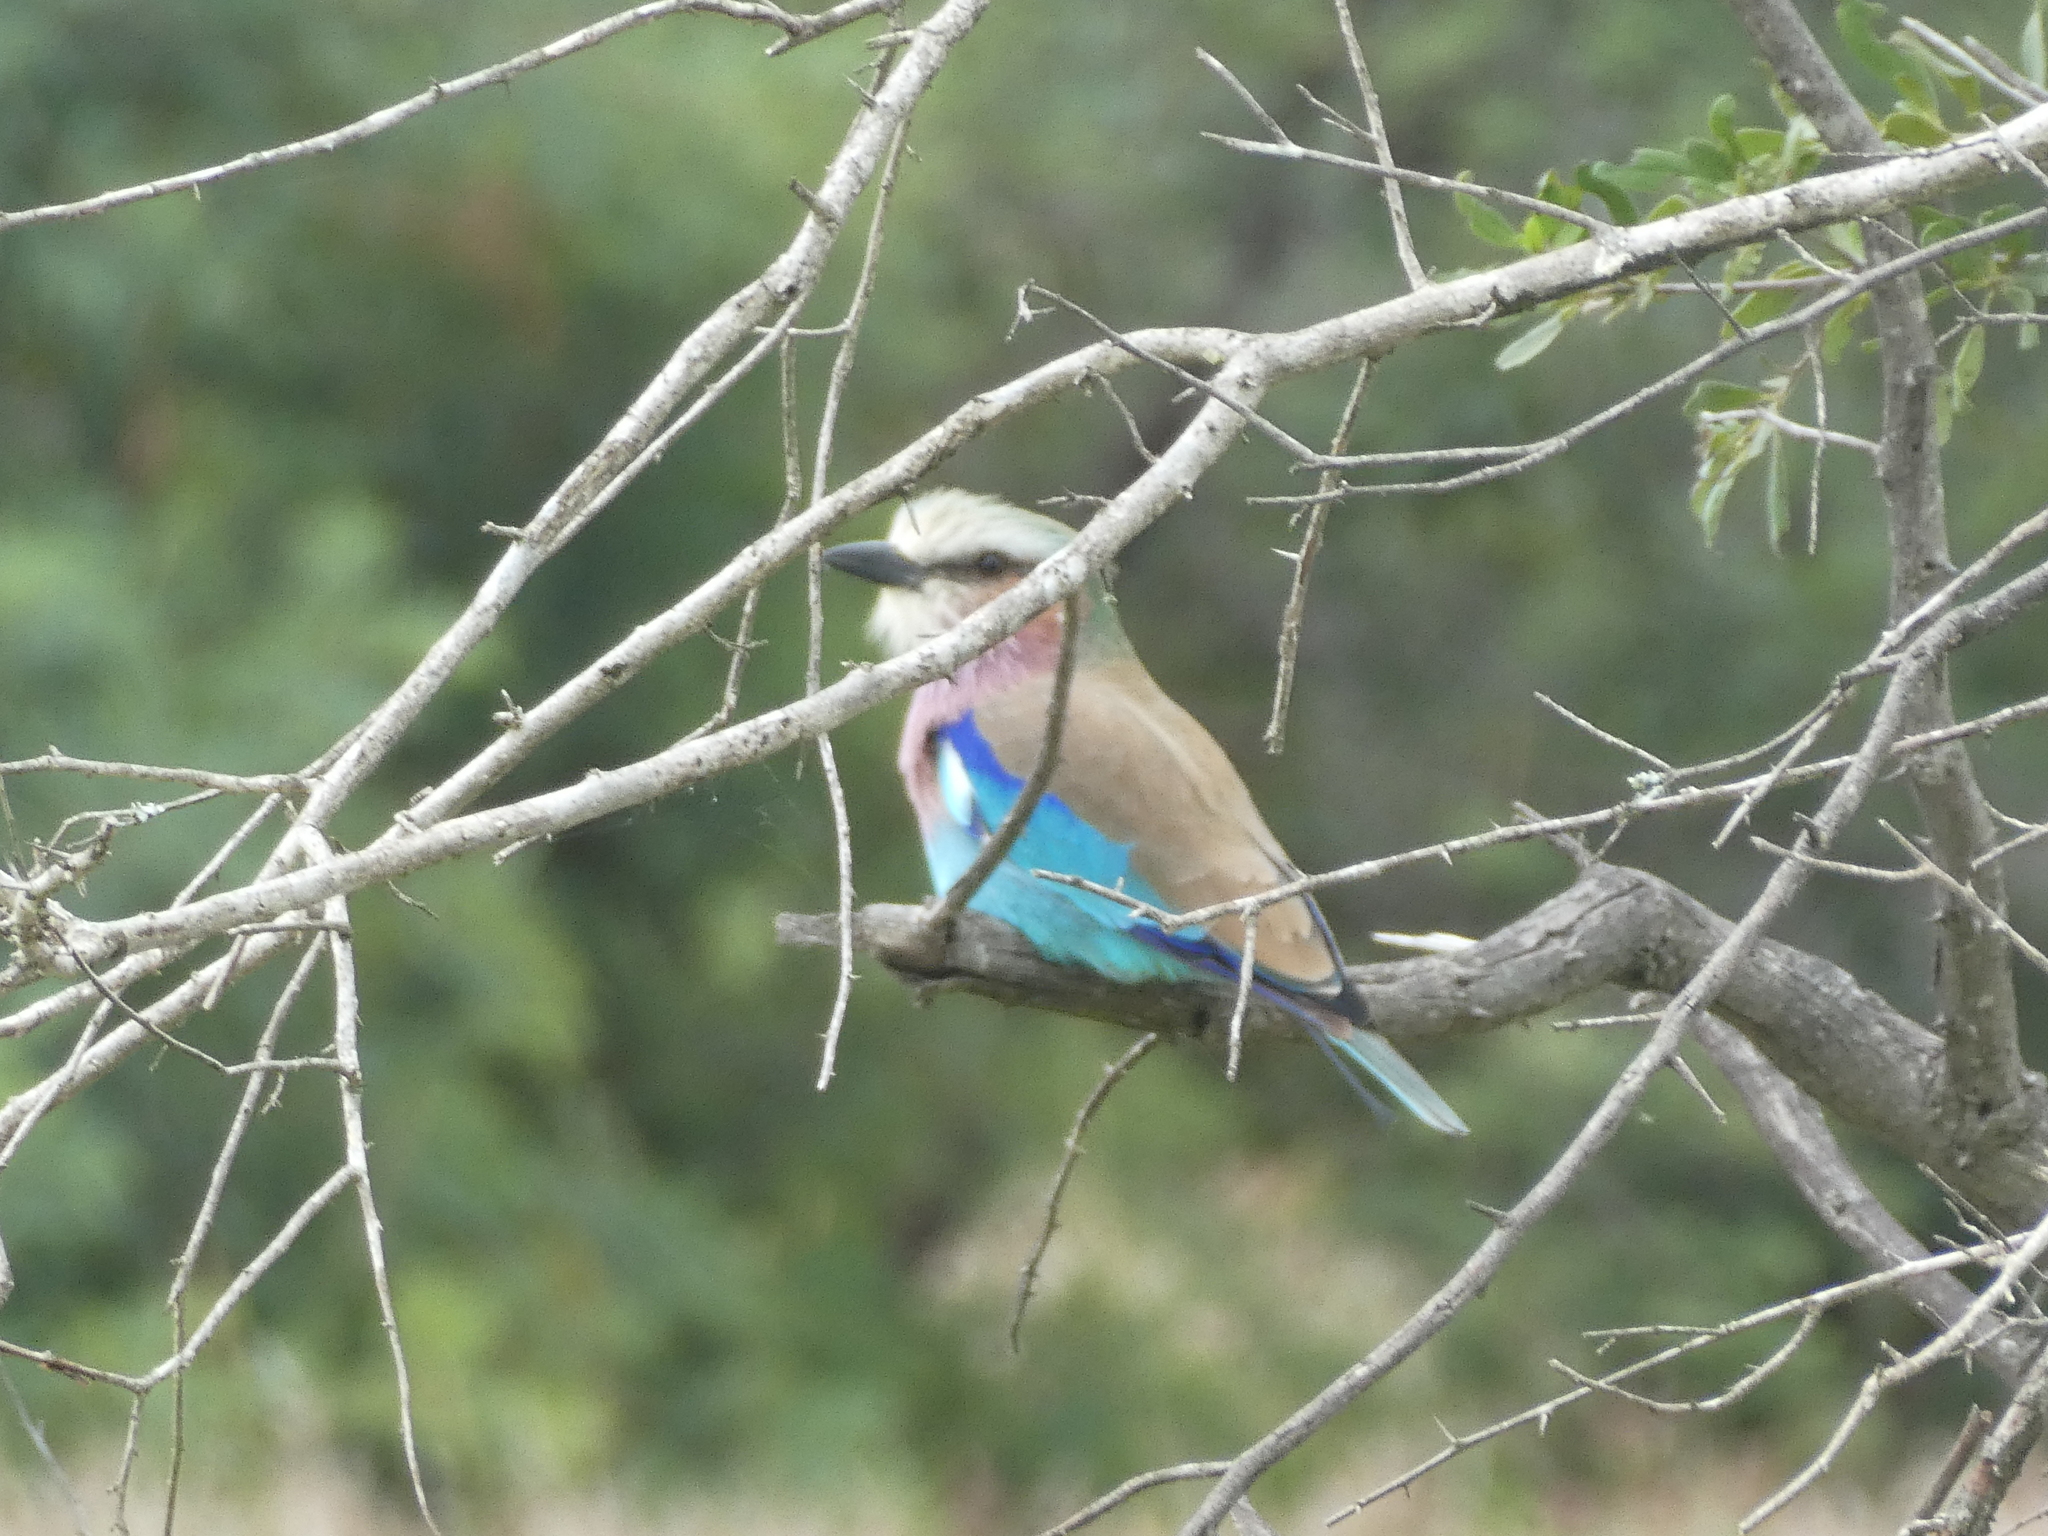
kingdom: Animalia
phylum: Chordata
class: Aves
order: Coraciiformes
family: Coraciidae
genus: Coracias
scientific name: Coracias caudatus
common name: Lilac-breasted roller
